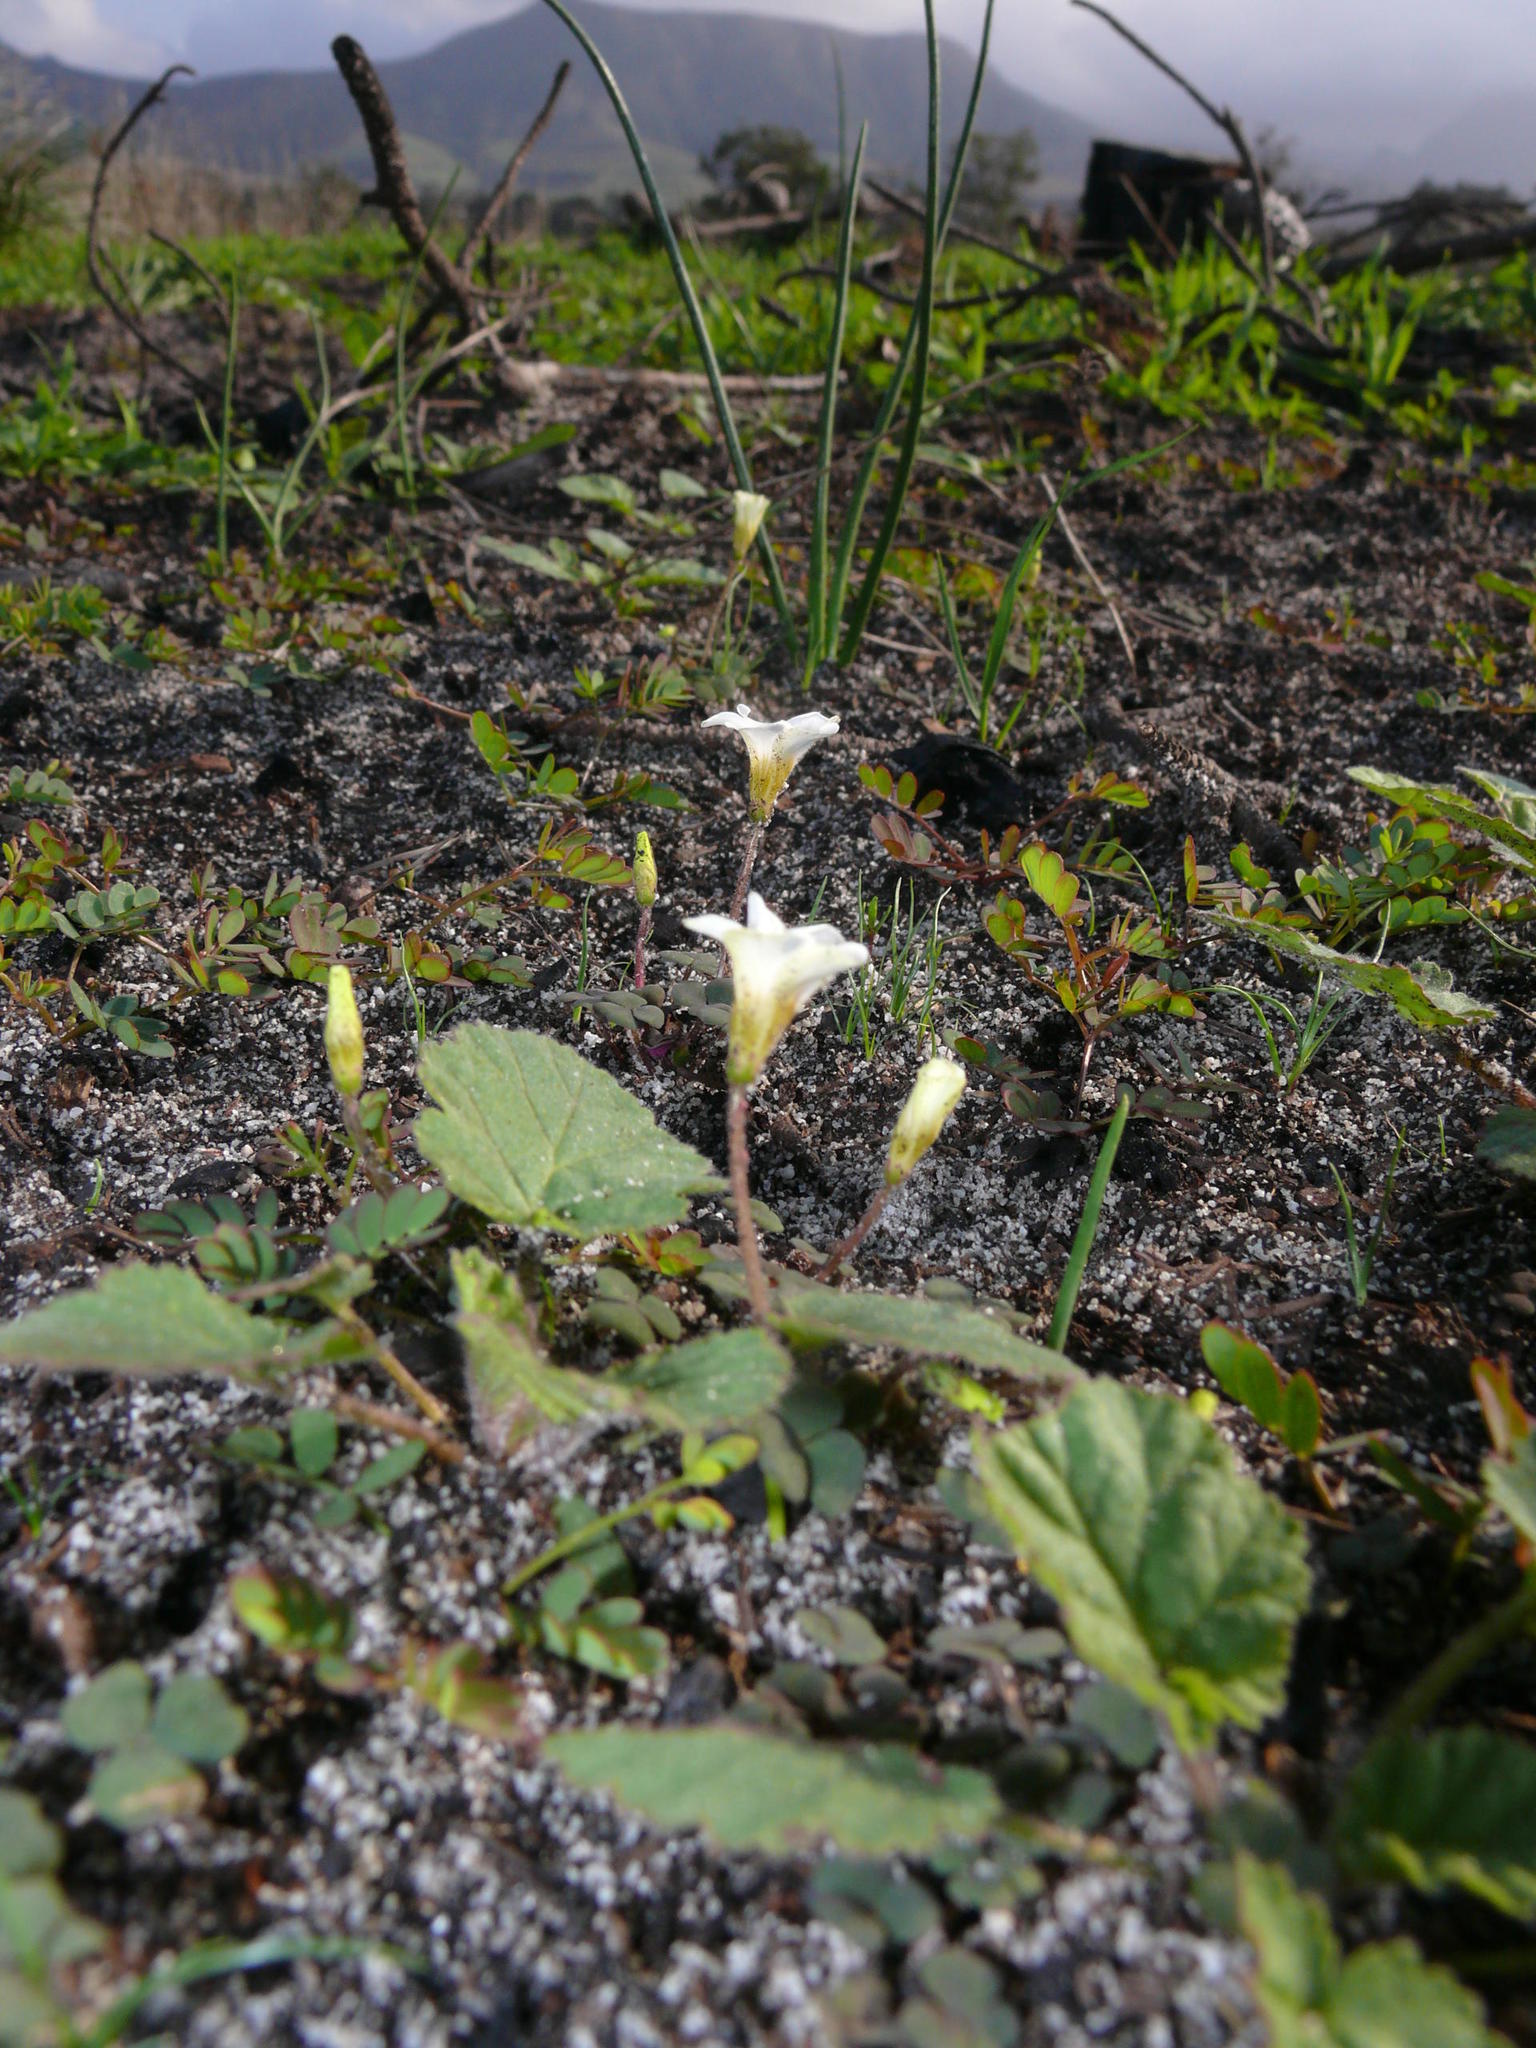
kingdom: Plantae
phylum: Tracheophyta
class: Magnoliopsida
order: Oxalidales
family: Oxalidaceae
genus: Oxalis
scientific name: Oxalis punctata
